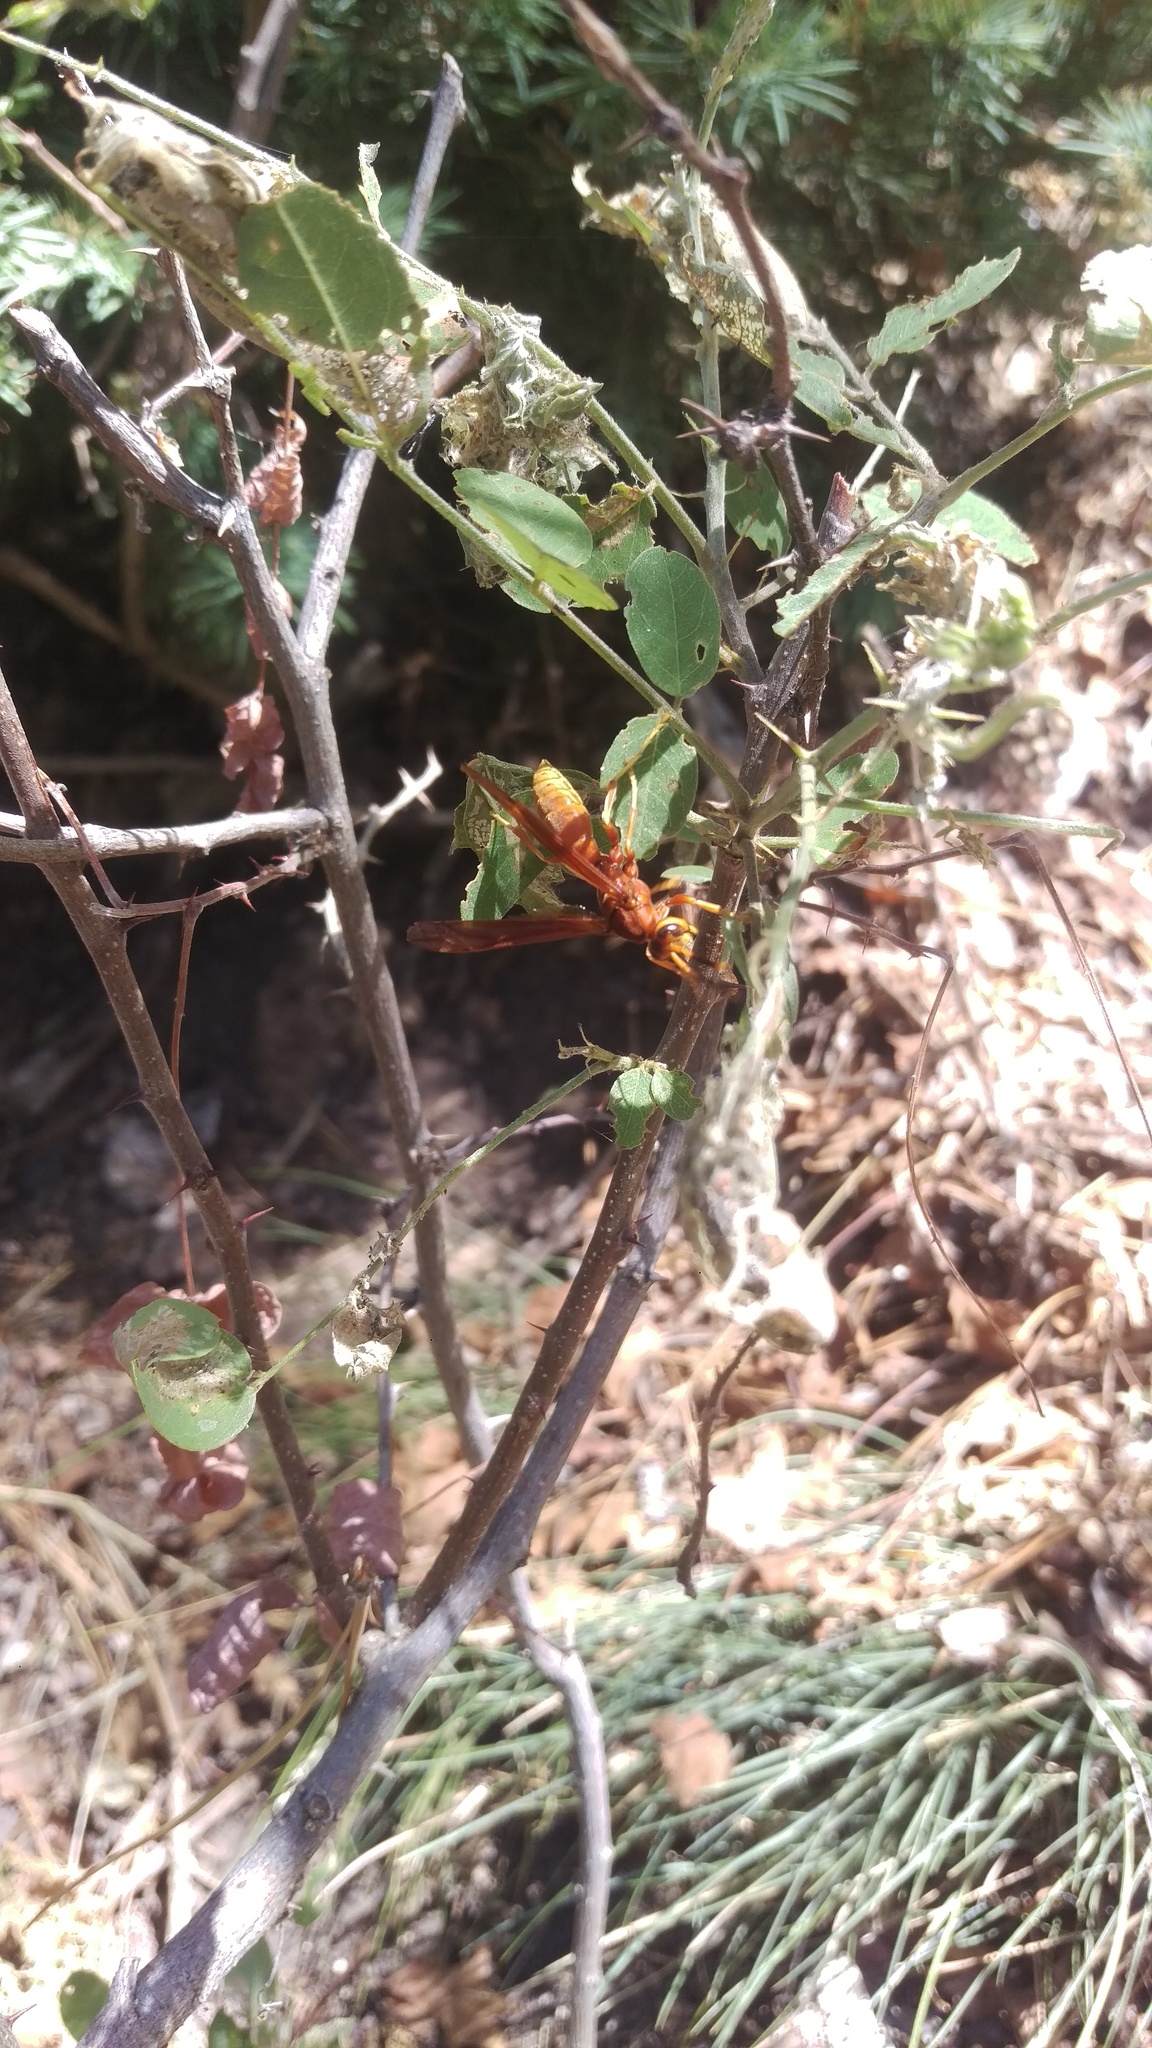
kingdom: Animalia
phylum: Arthropoda
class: Insecta
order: Hymenoptera
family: Eumenidae
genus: Polistes
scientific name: Polistes kaibabensis
